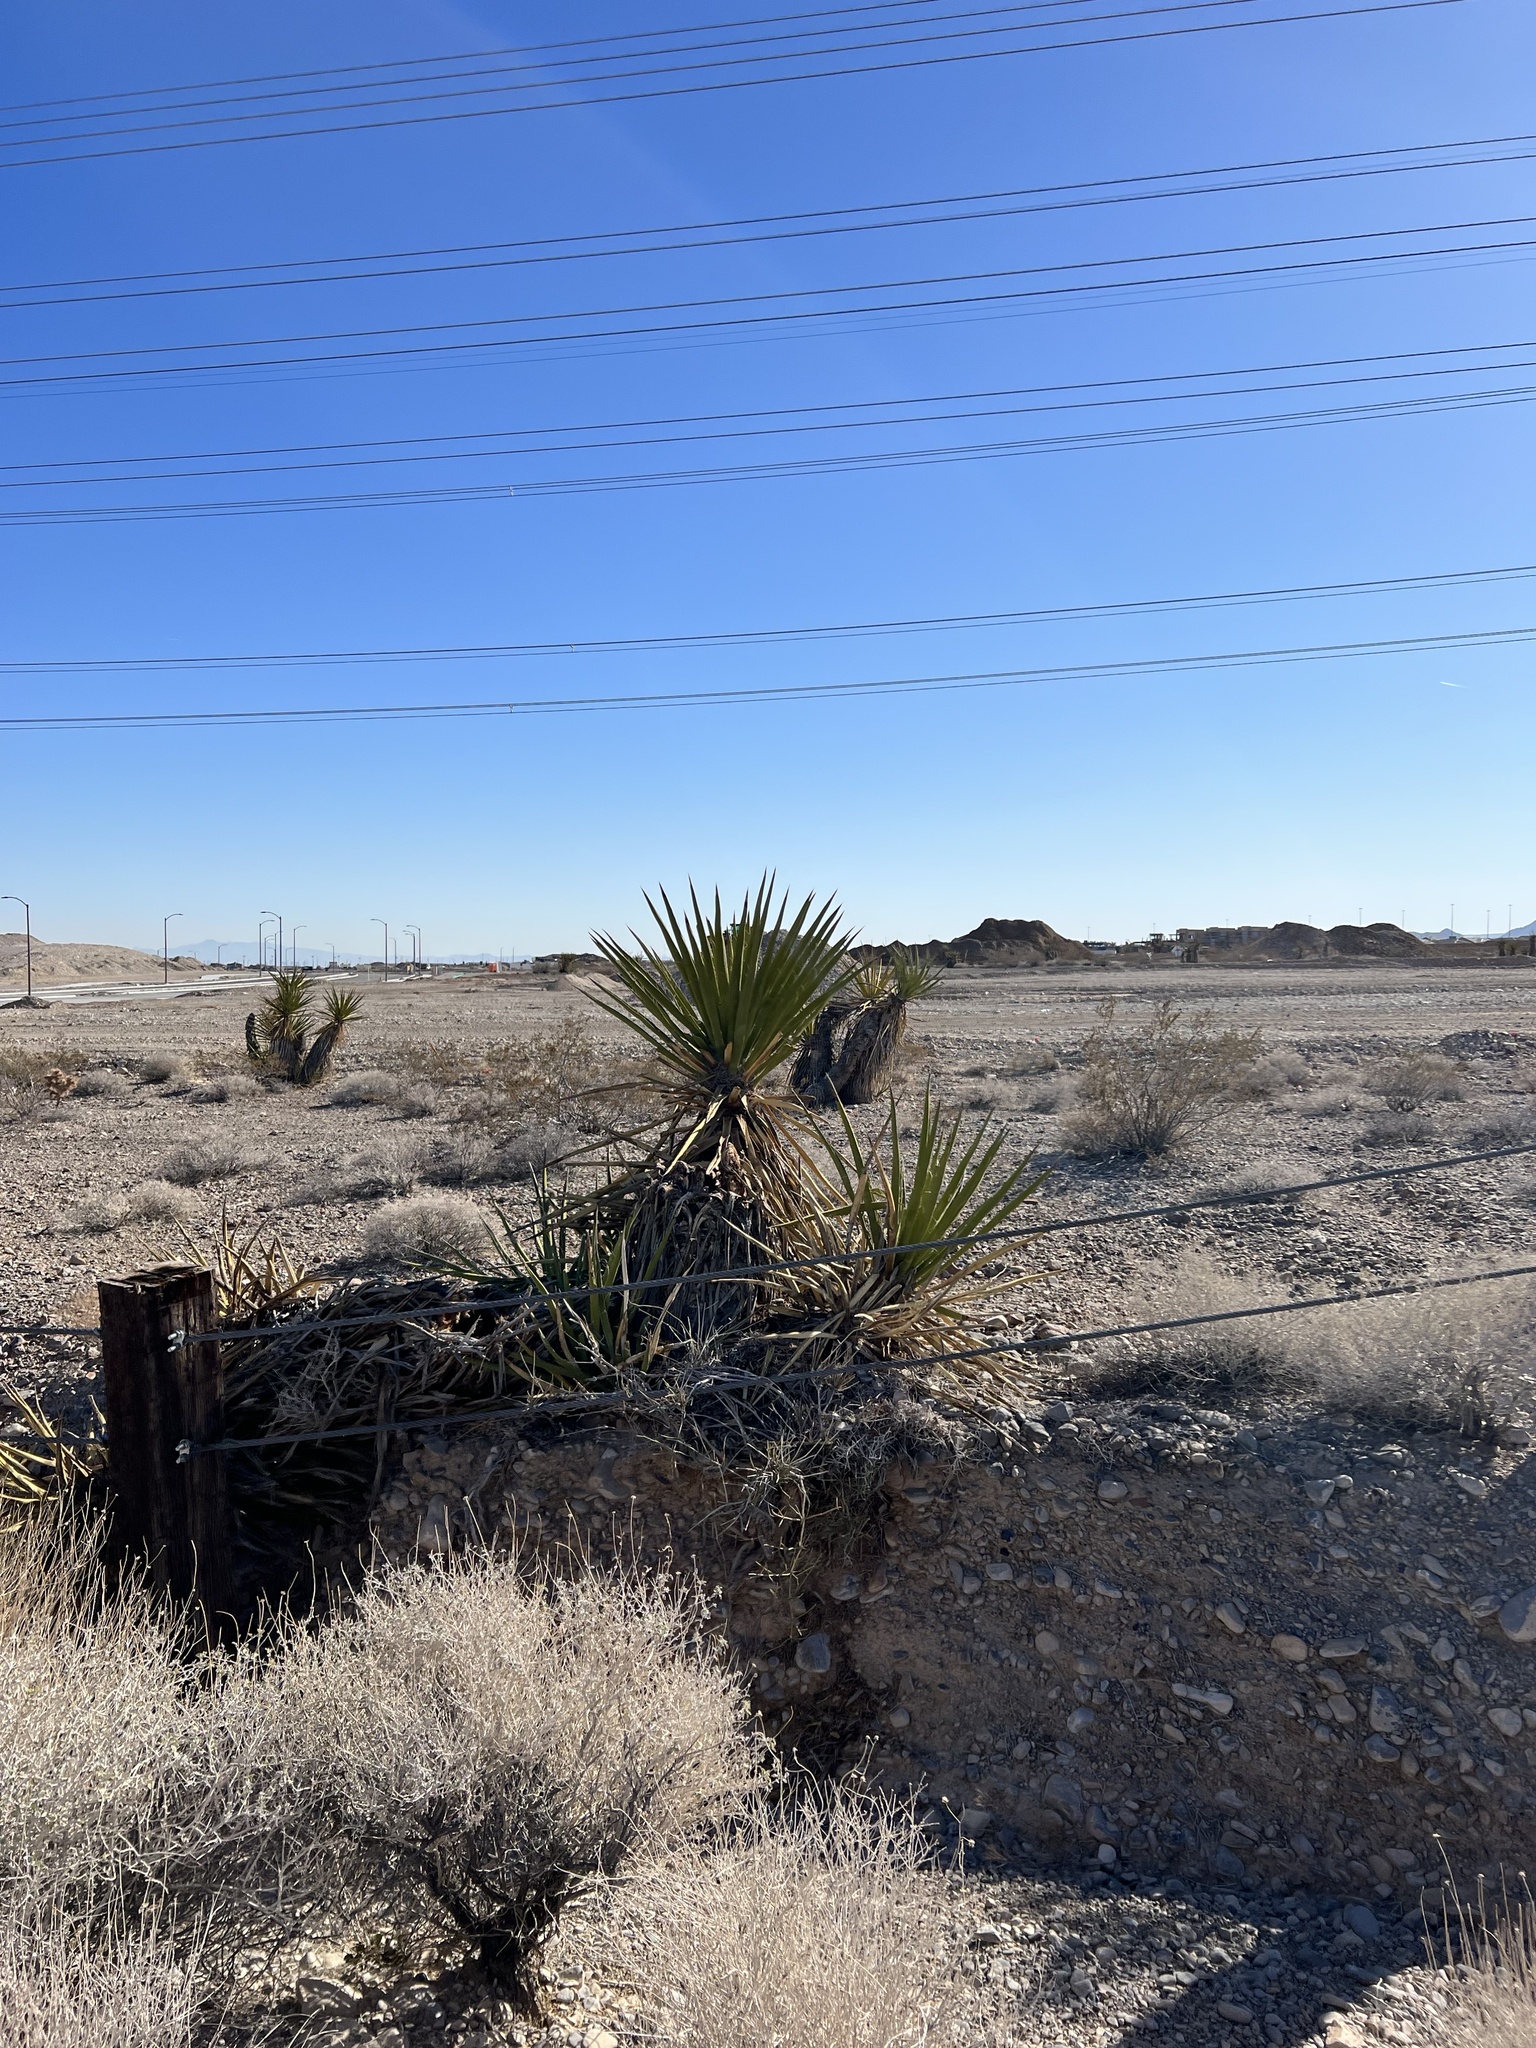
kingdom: Plantae
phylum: Tracheophyta
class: Liliopsida
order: Asparagales
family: Asparagaceae
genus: Yucca
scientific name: Yucca schidigera
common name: Mojave yucca
